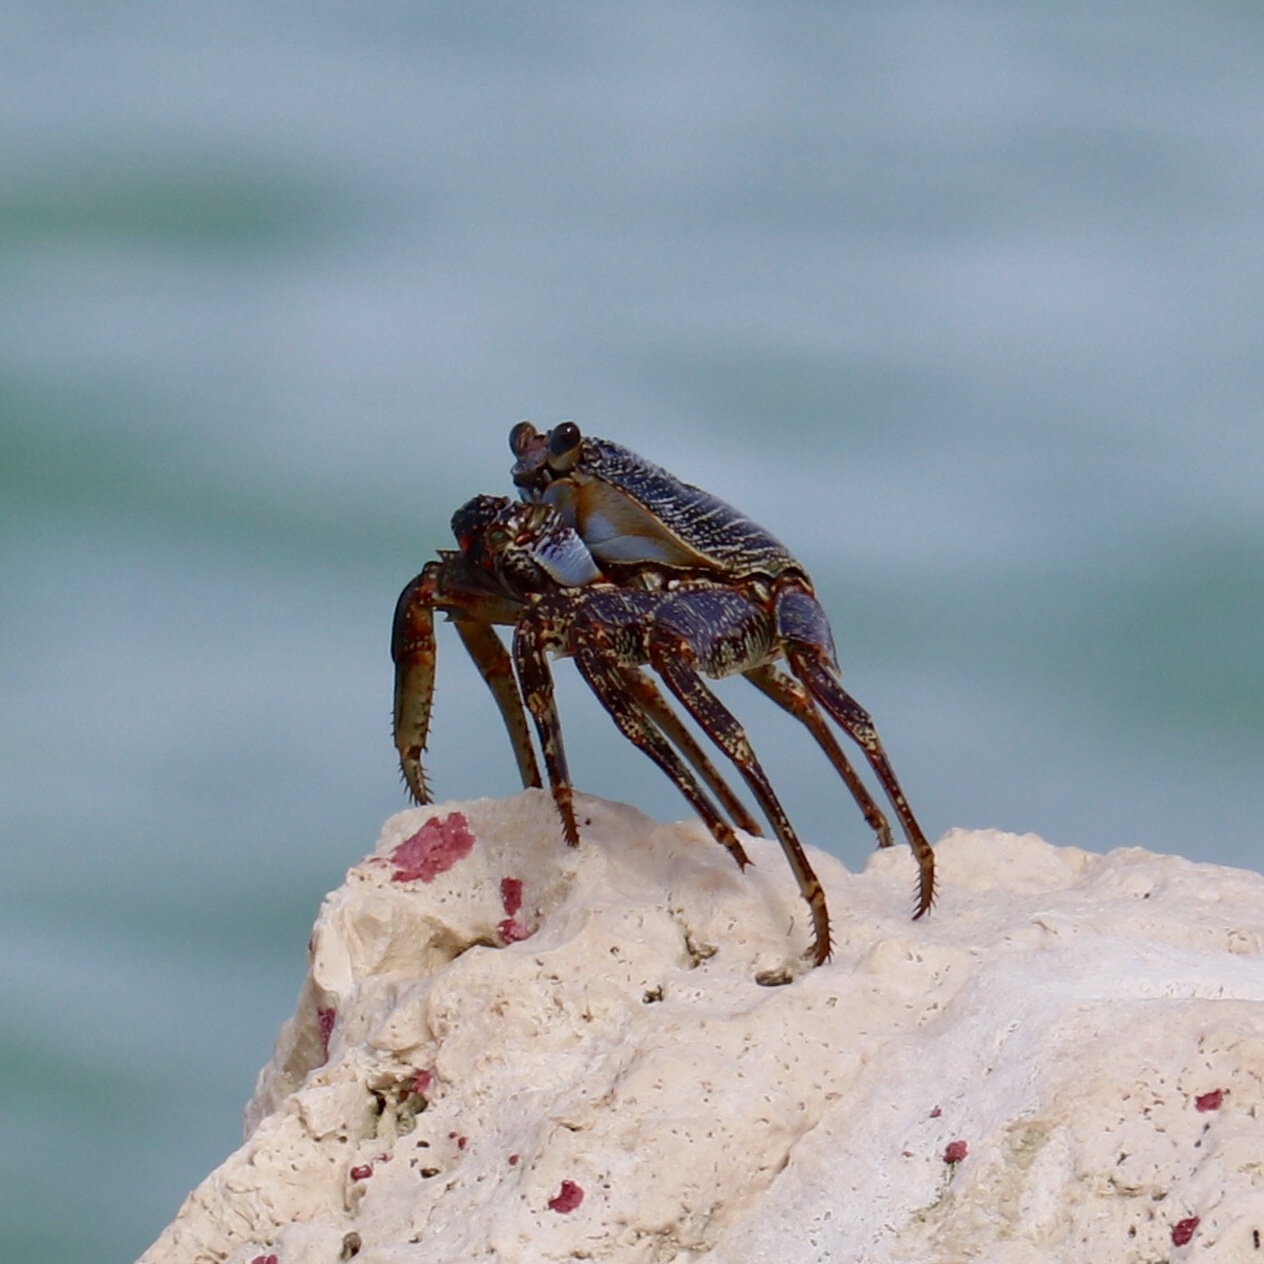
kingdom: Animalia
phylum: Arthropoda
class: Malacostraca
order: Decapoda
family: Grapsidae
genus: Grapsus
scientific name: Grapsus grapsus
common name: Sally lightfoot
